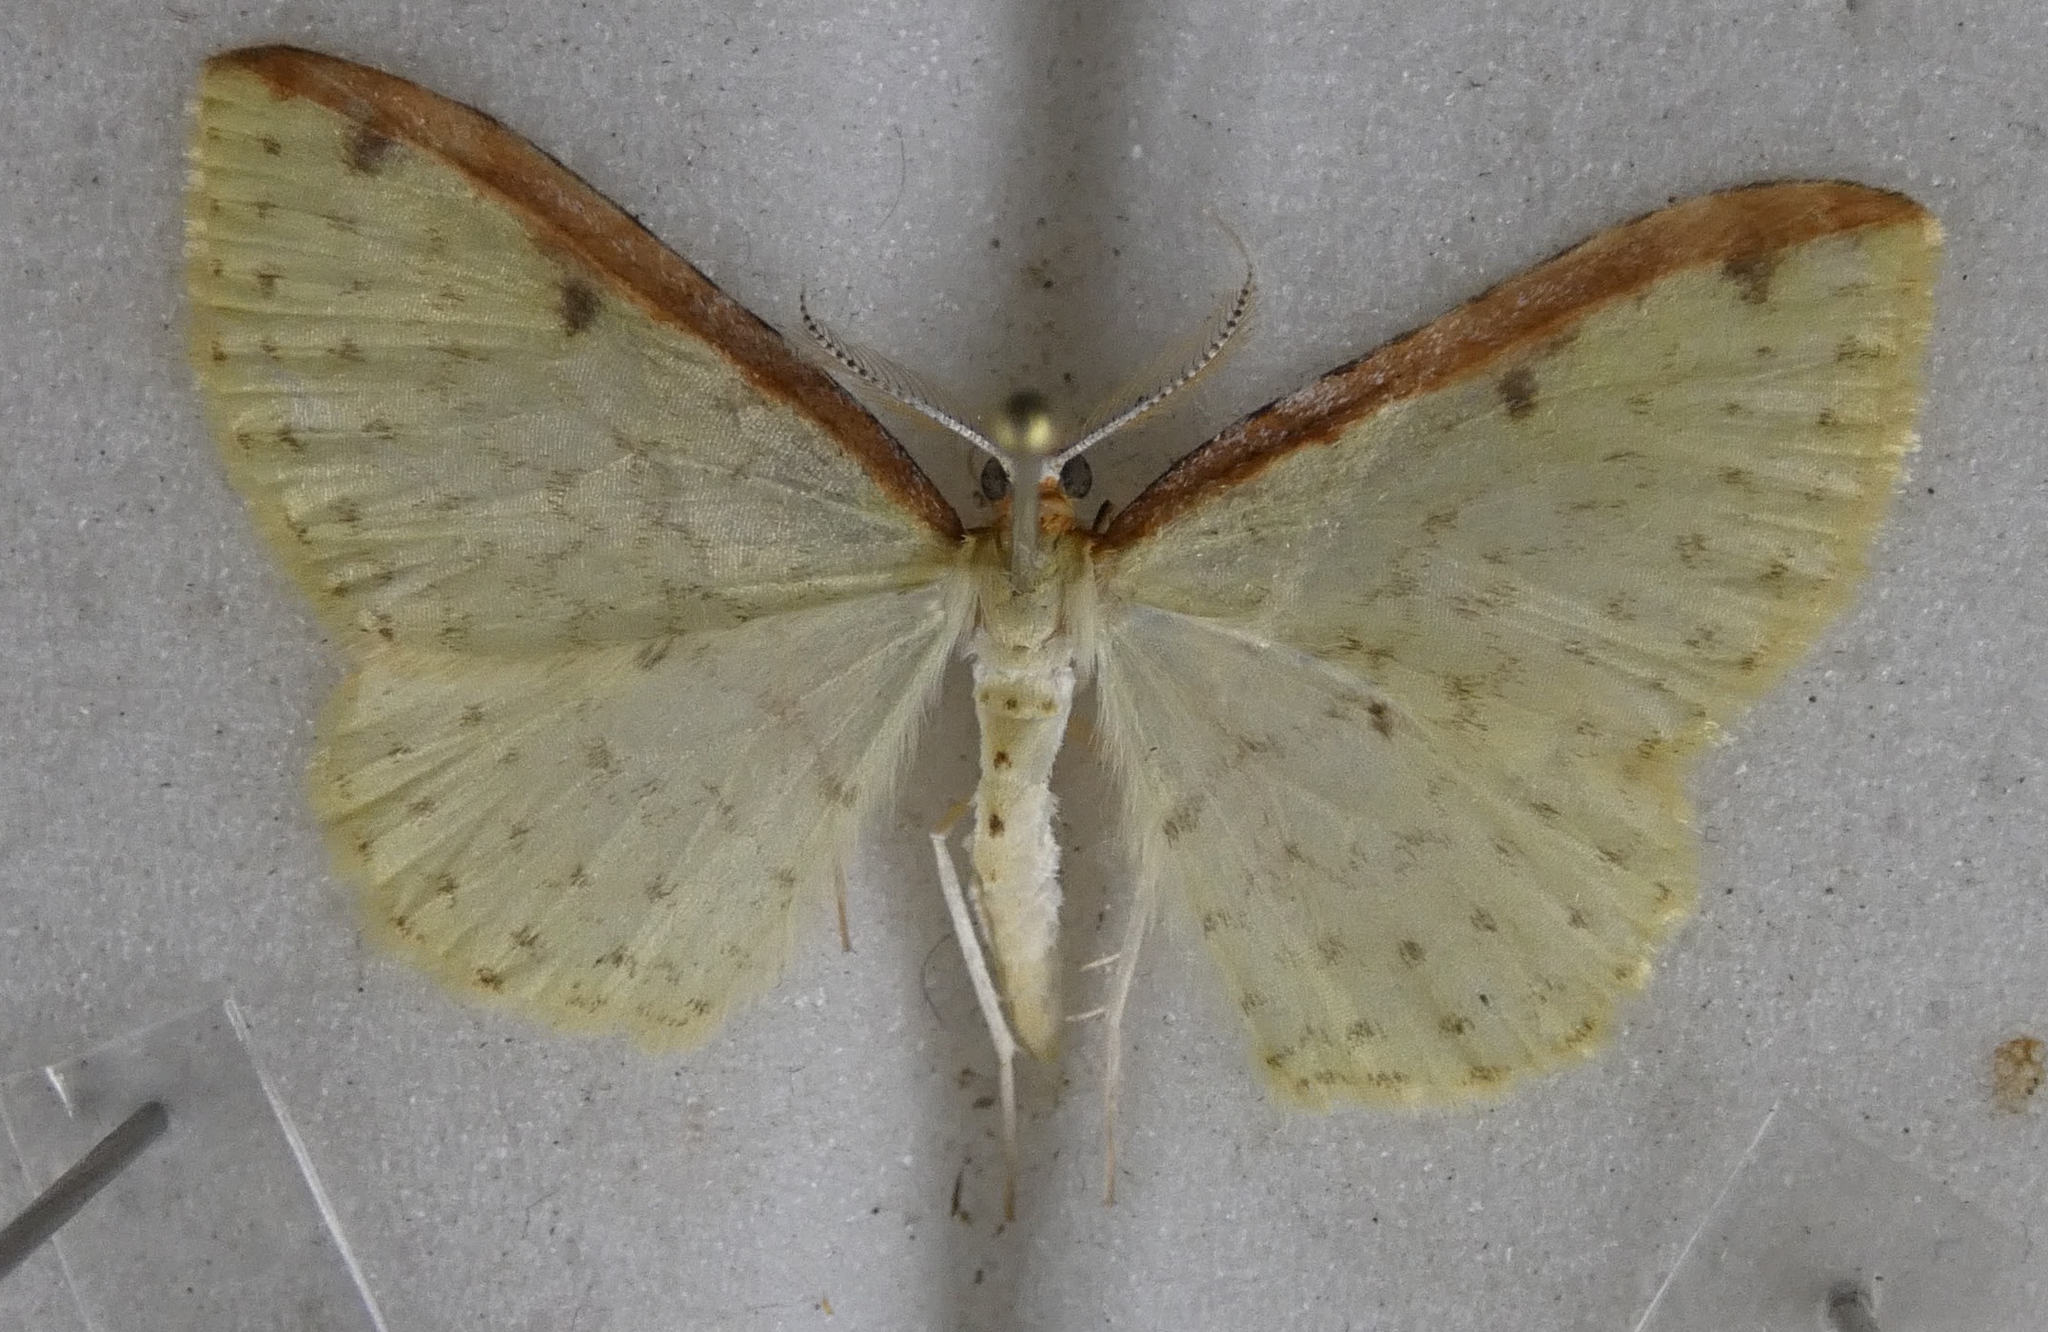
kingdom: Animalia
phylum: Arthropoda
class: Insecta
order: Lepidoptera
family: Geometridae
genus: Epiphryne
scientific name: Epiphryne undosata
